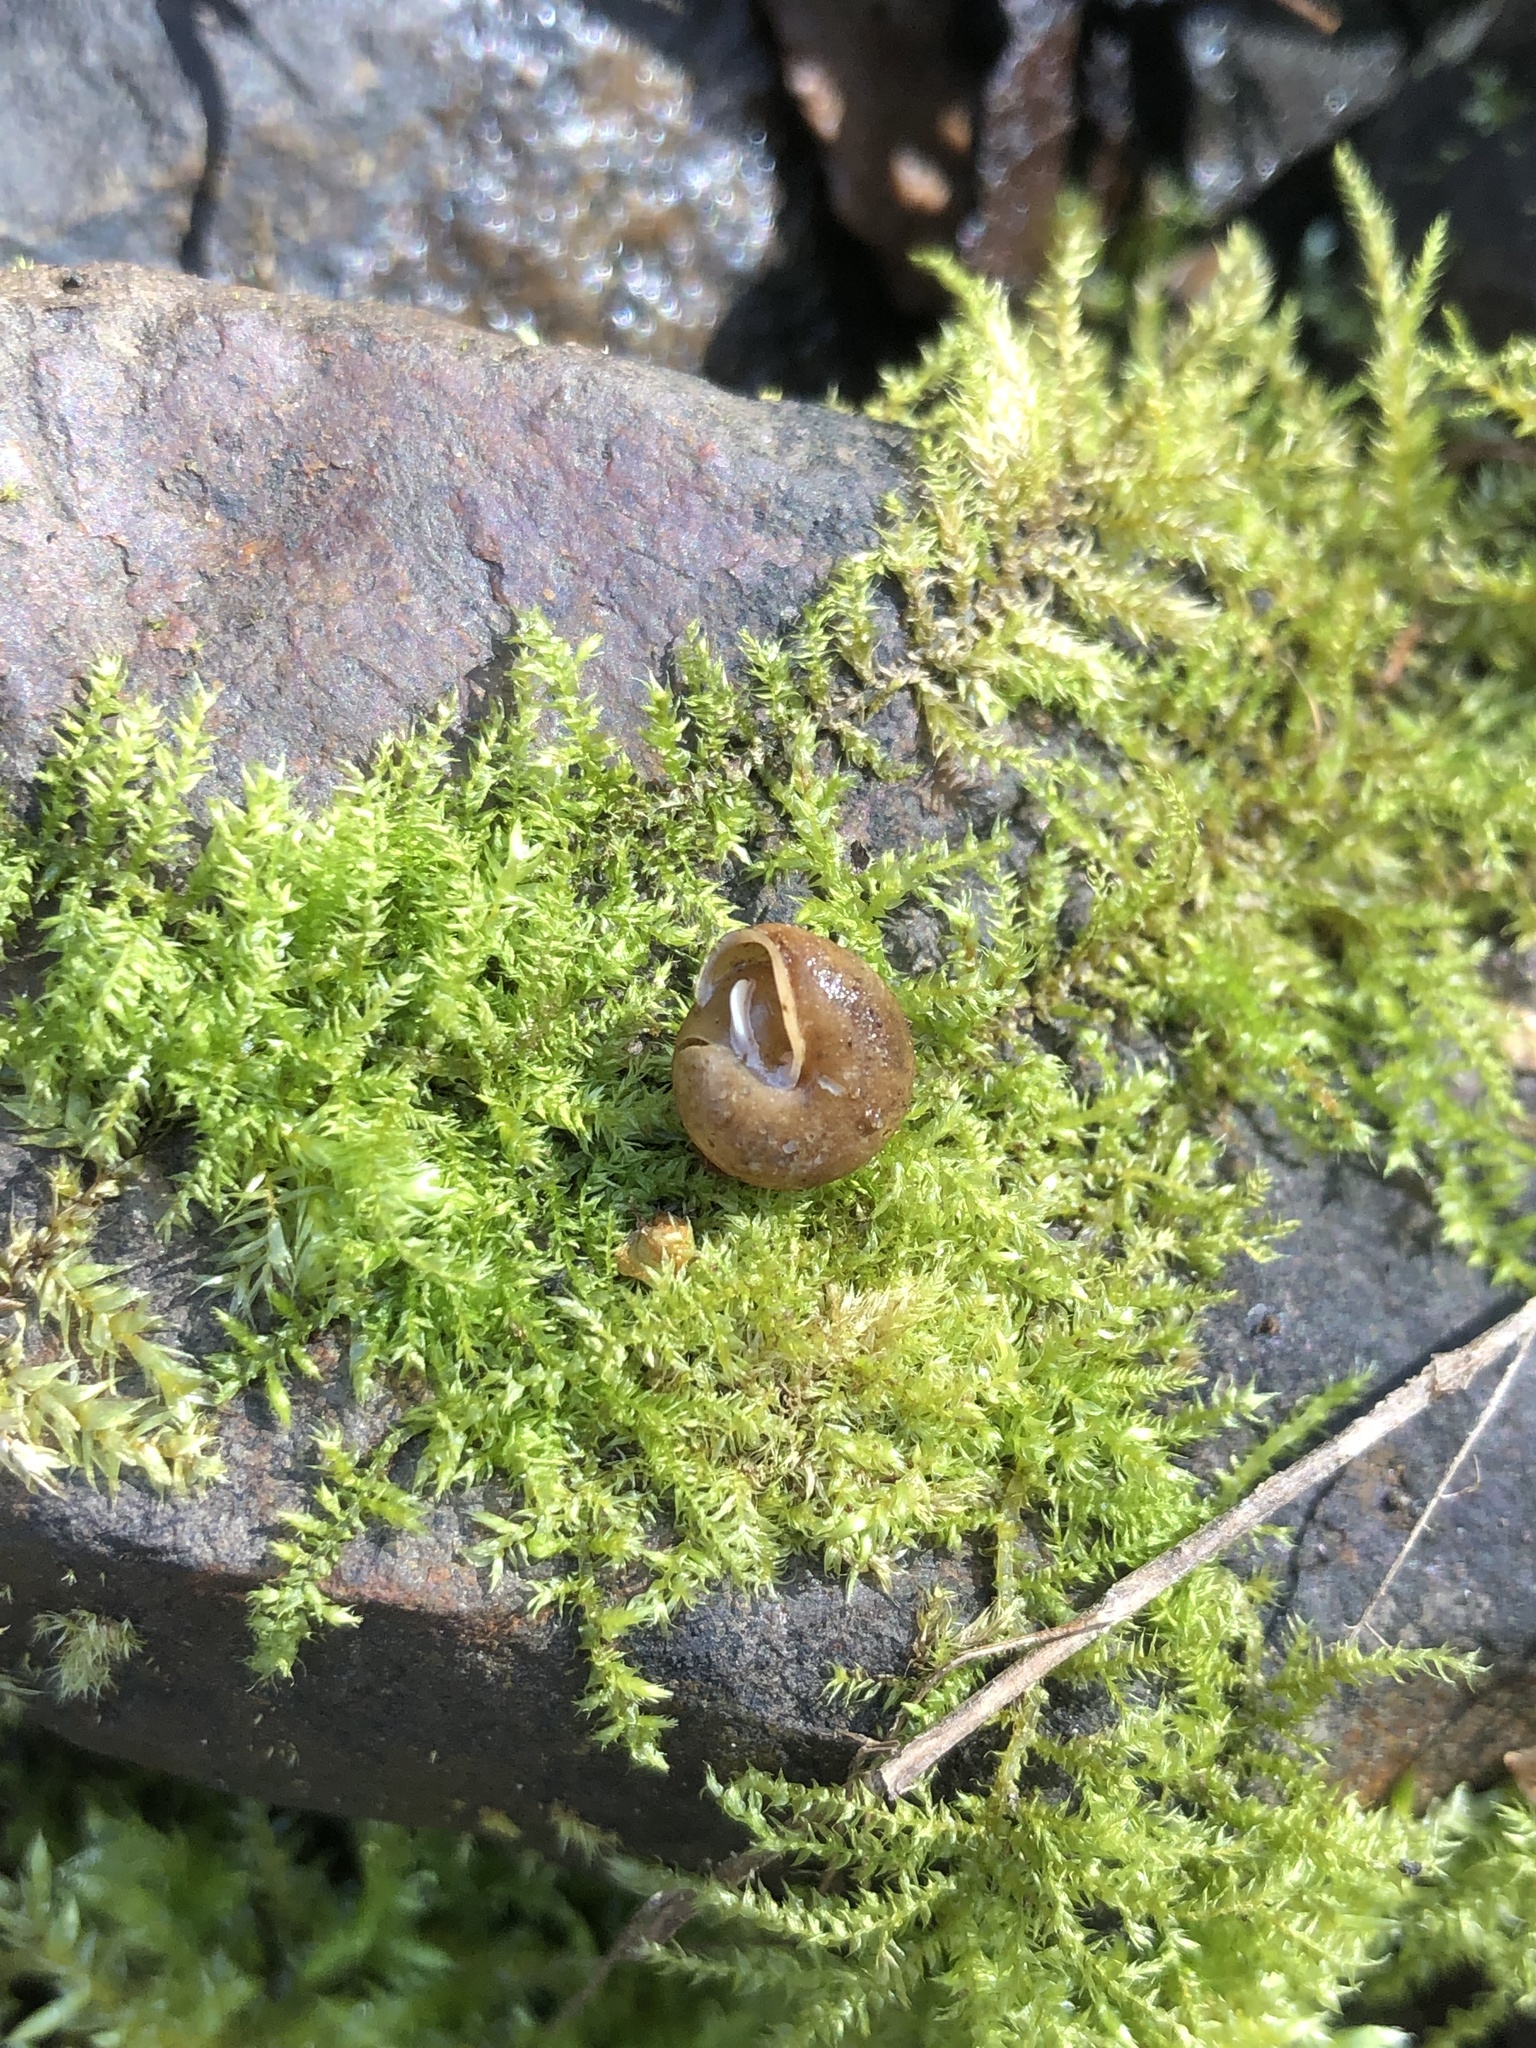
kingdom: Animalia
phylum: Mollusca
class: Gastropoda
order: Stylommatophora
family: Polygyridae
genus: Cryptomastix
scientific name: Cryptomastix germana
